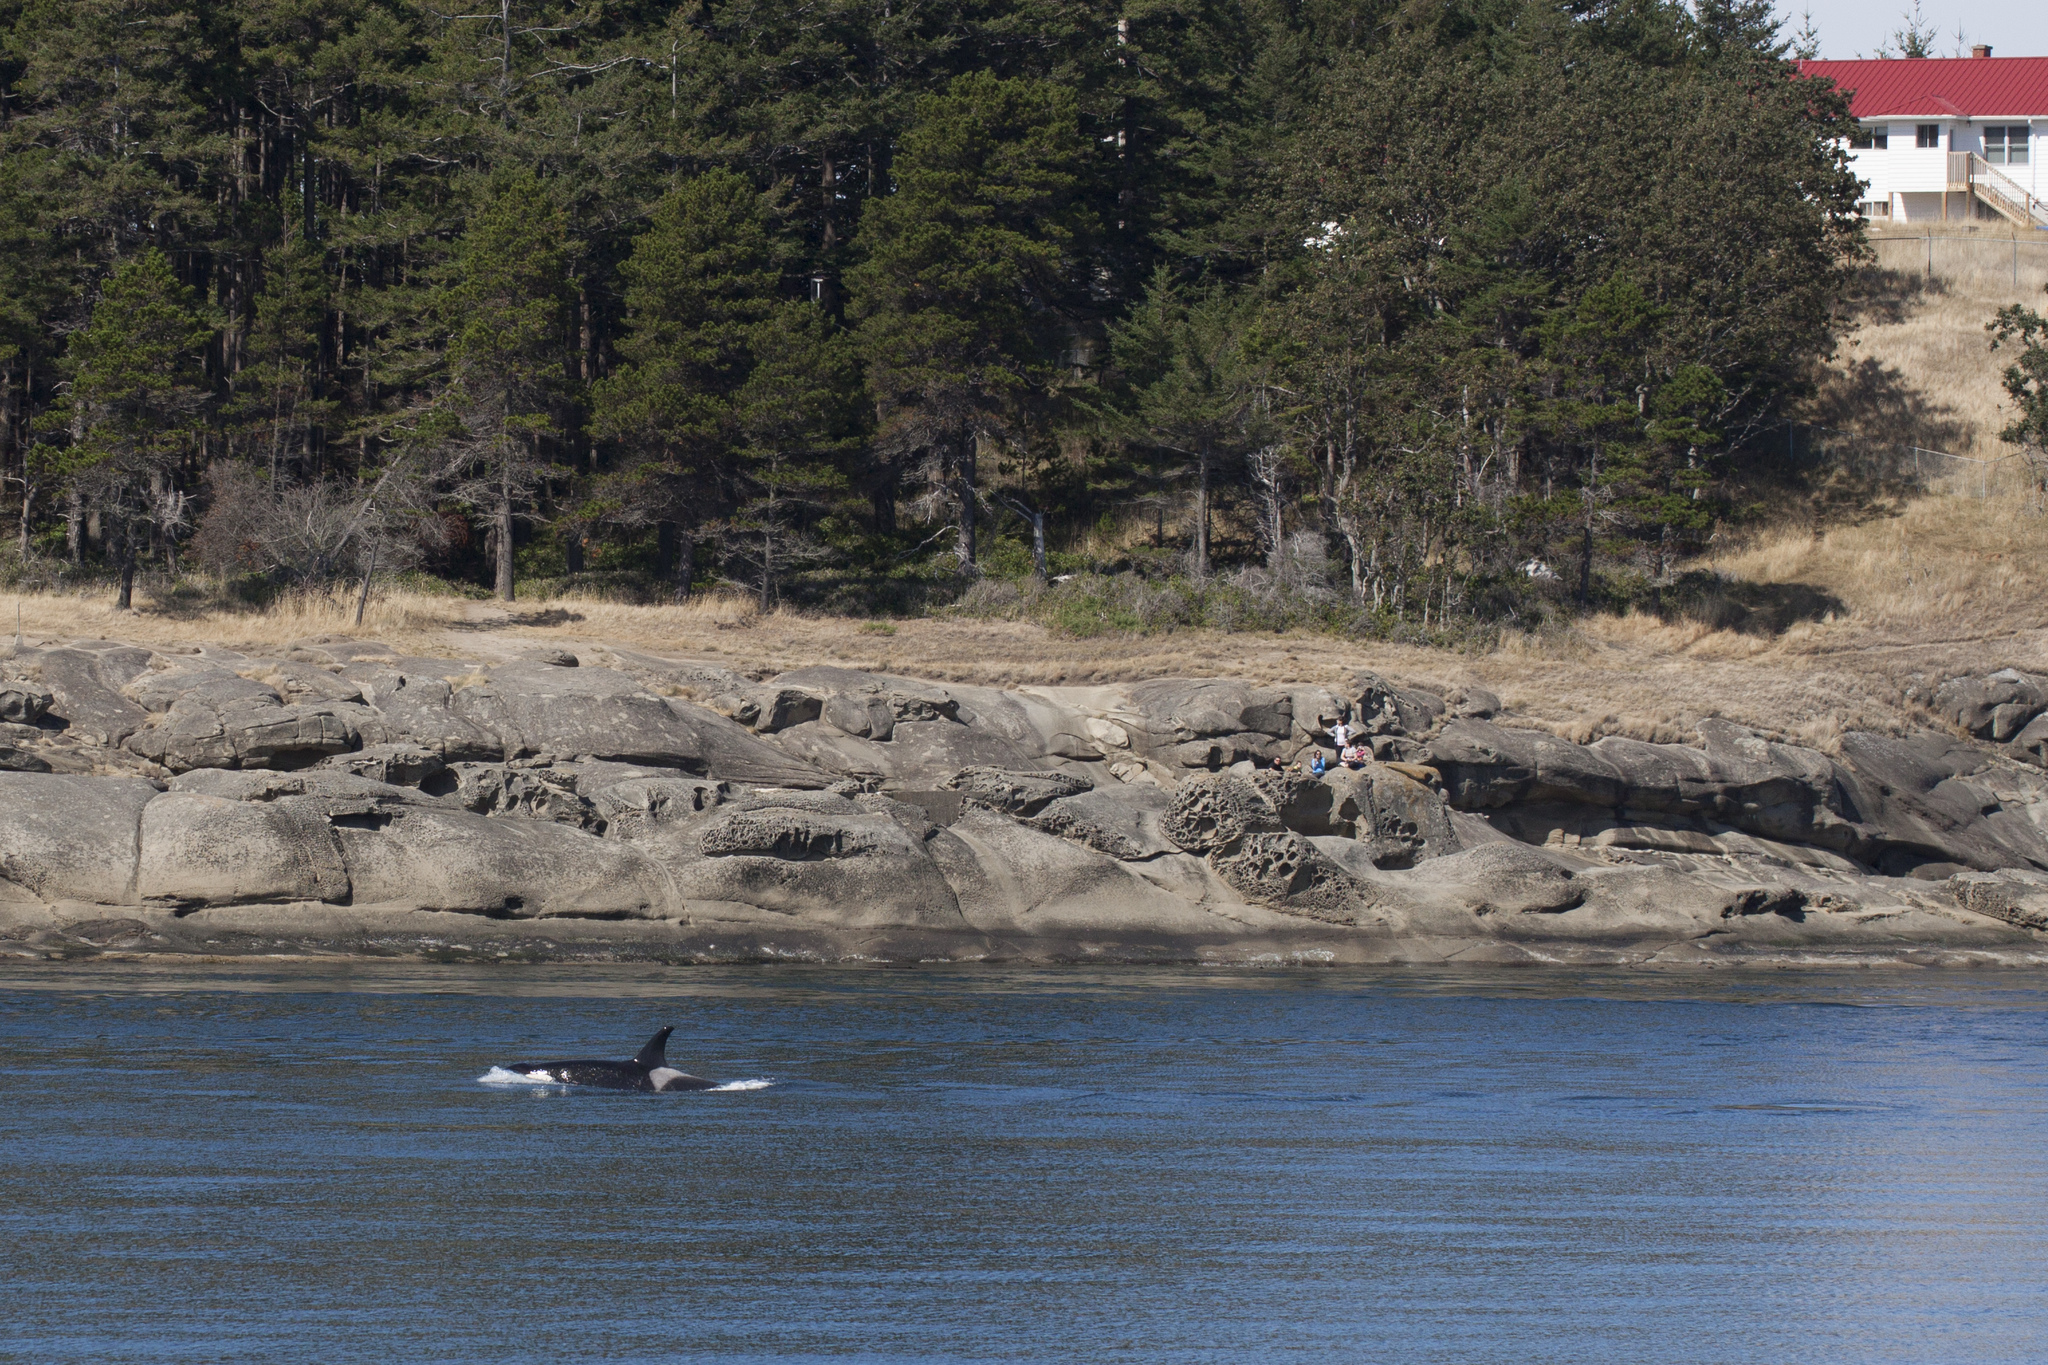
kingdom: Animalia
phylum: Chordata
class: Mammalia
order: Cetacea
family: Delphinidae
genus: Orcinus
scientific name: Orcinus orca
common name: Killer whale
